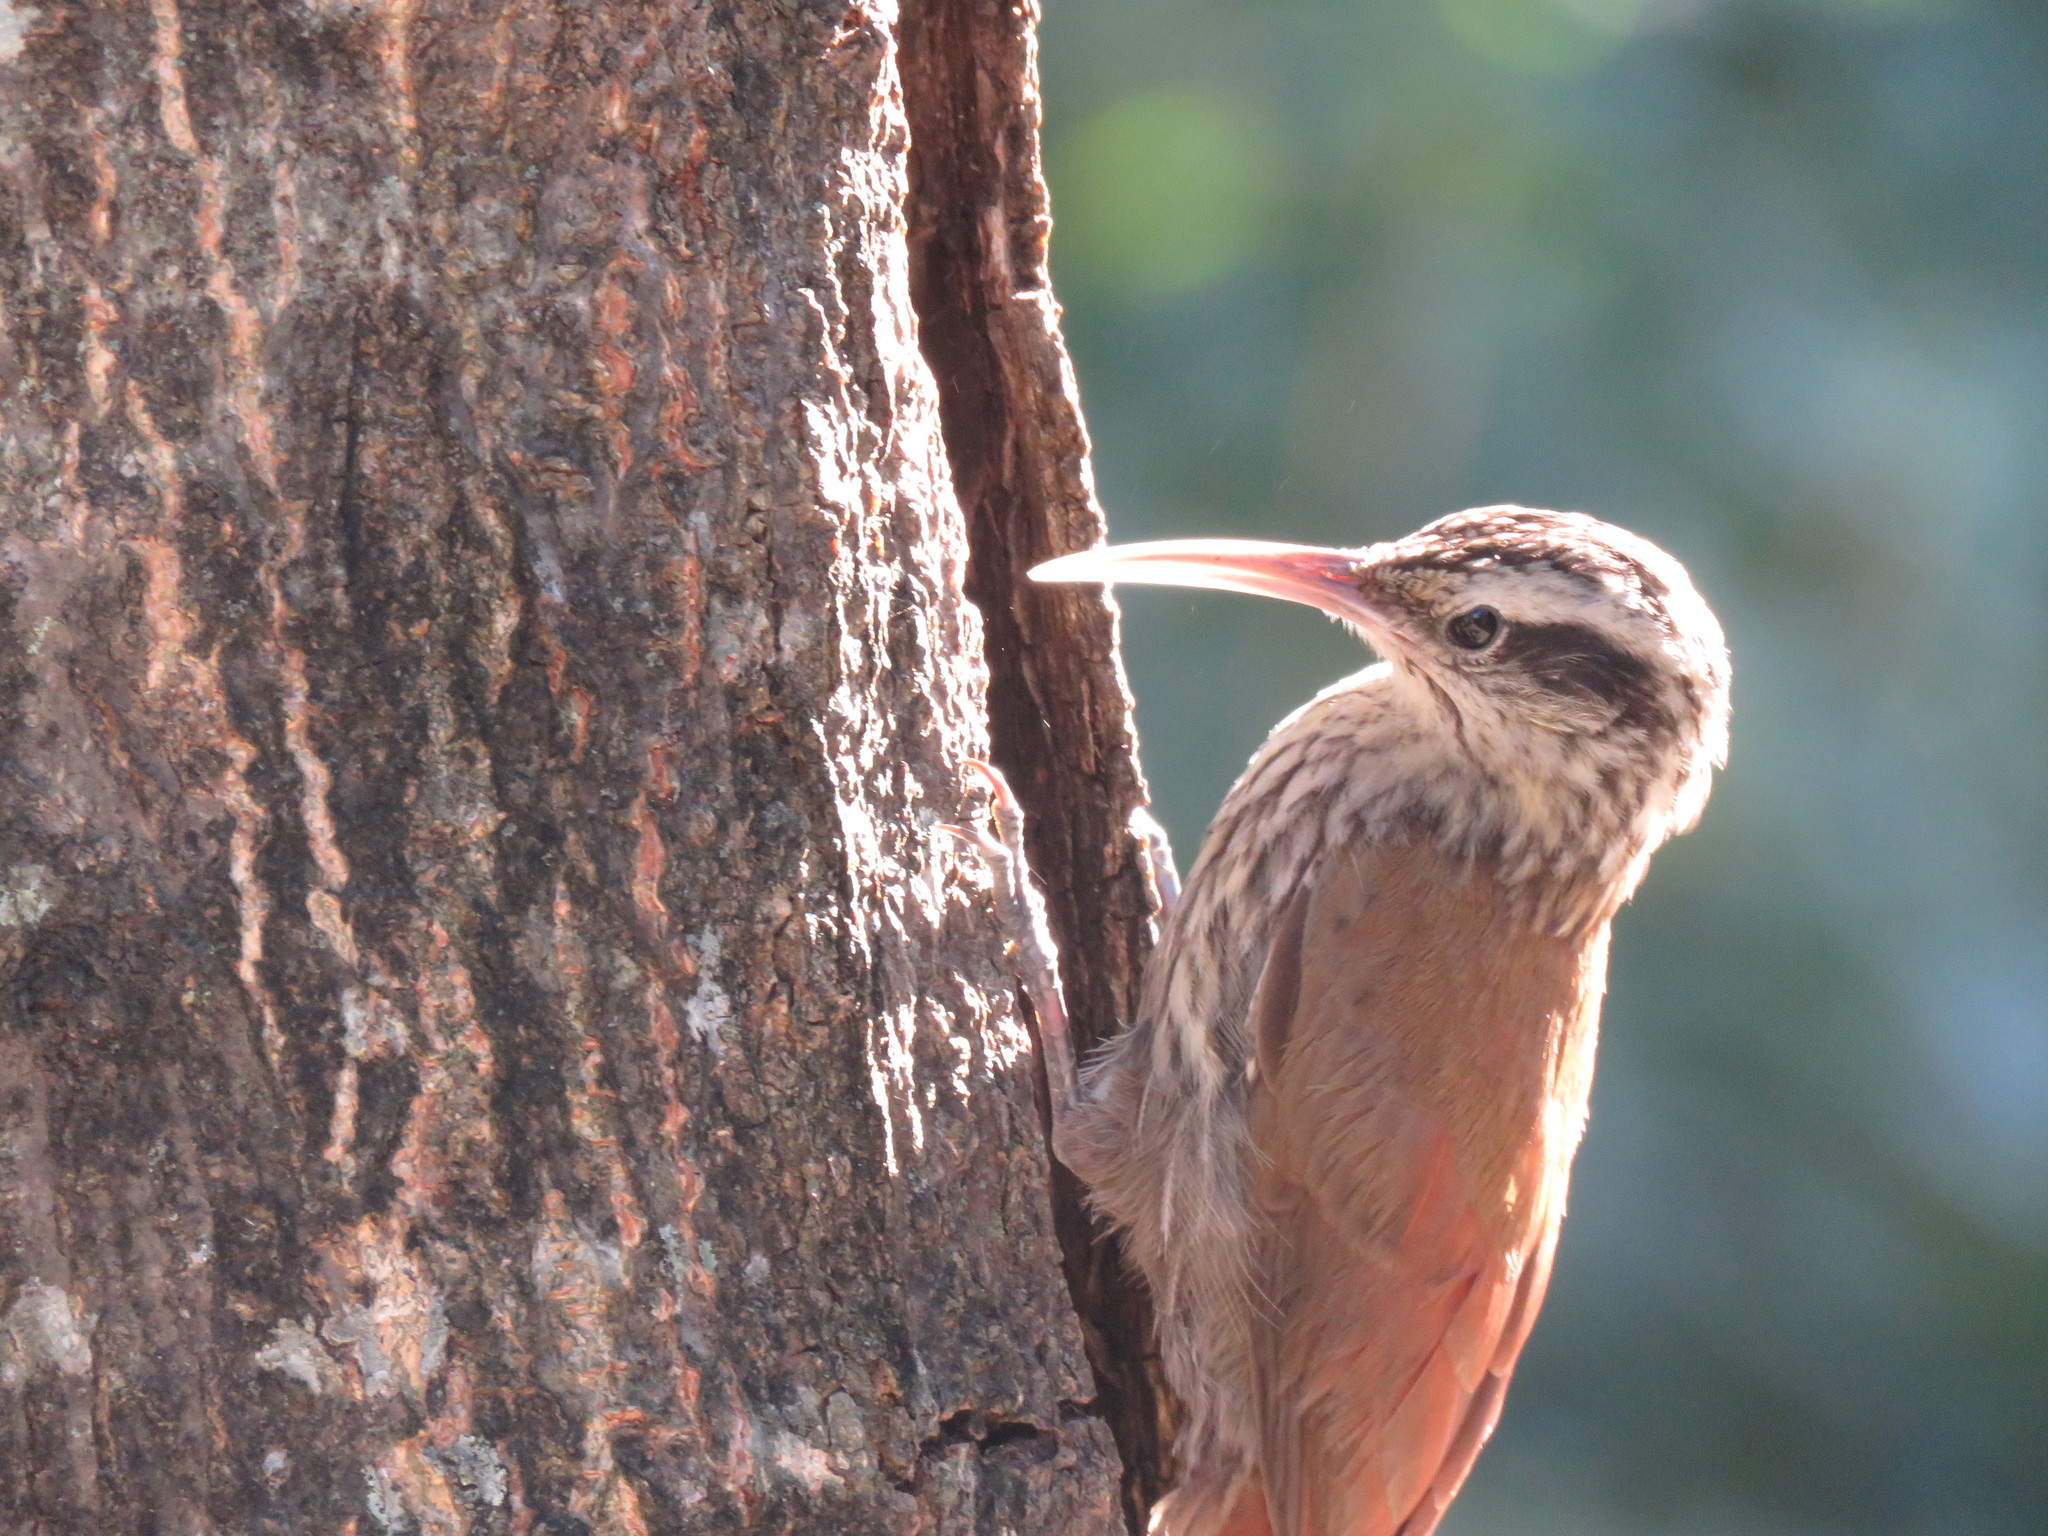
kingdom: Animalia
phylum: Chordata
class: Aves
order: Passeriformes
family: Furnariidae
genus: Lepidocolaptes
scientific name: Lepidocolaptes angustirostris
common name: Narrow-billed woodcreeper
